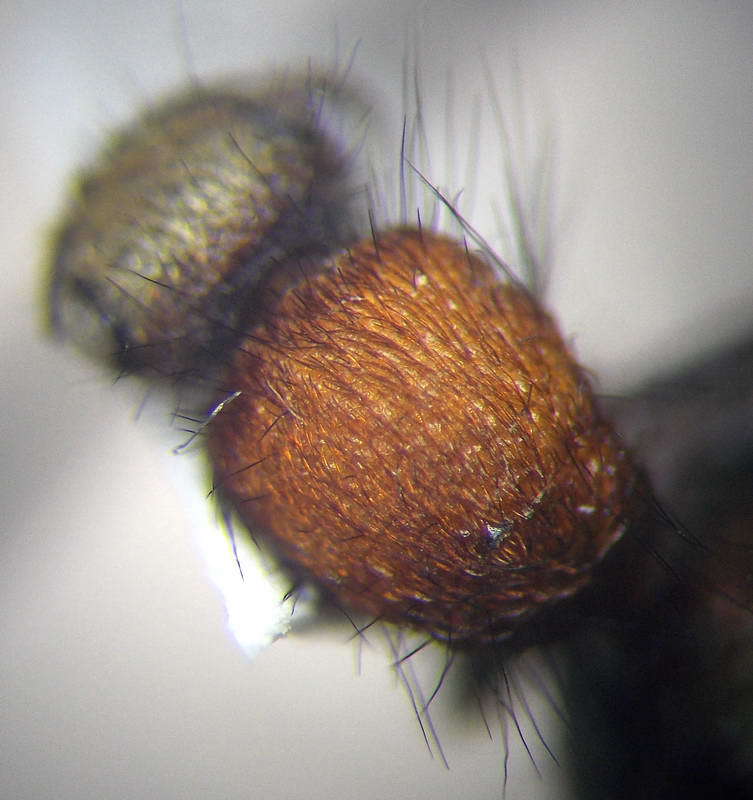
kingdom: Animalia
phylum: Arthropoda
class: Insecta
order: Hymenoptera
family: Mutillidae
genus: Dasylabris
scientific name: Dasylabris regalis
